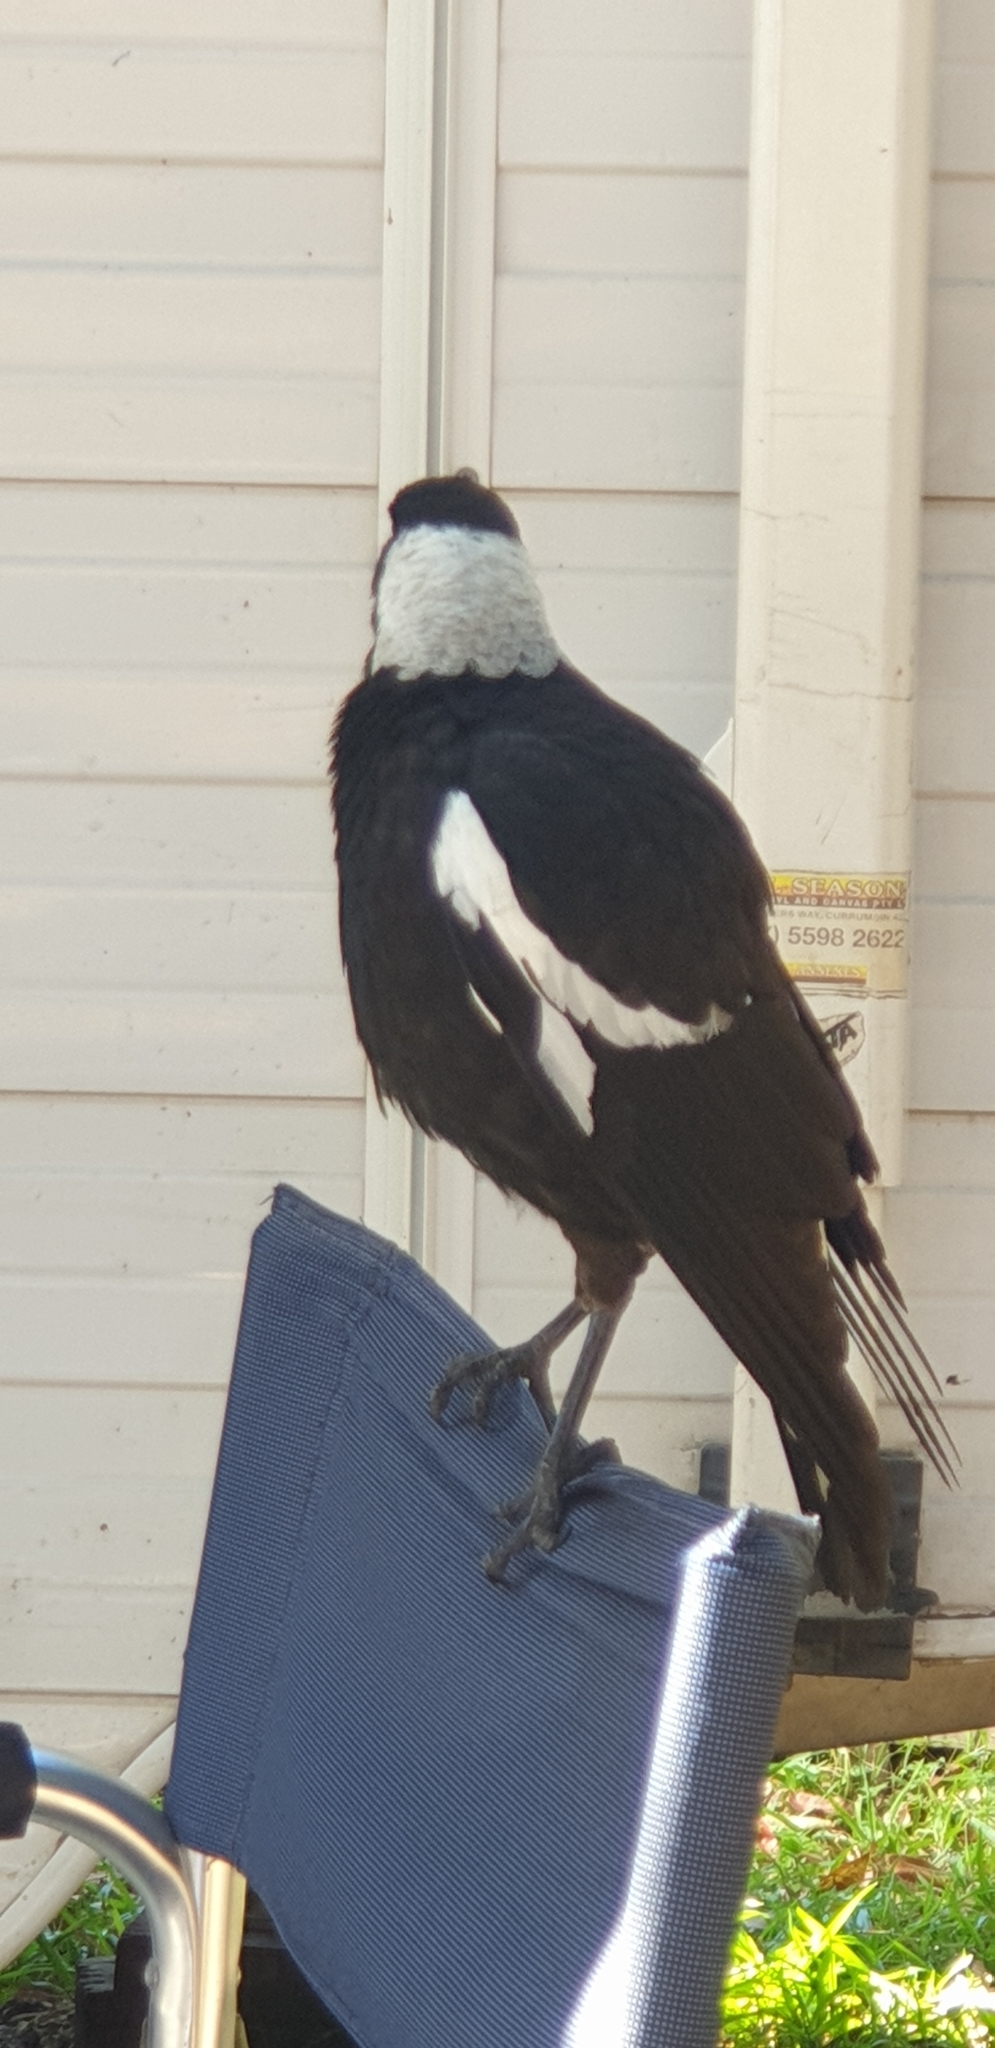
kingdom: Animalia
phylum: Chordata
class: Aves
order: Passeriformes
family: Cracticidae
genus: Gymnorhina
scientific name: Gymnorhina tibicen
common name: Australian magpie
